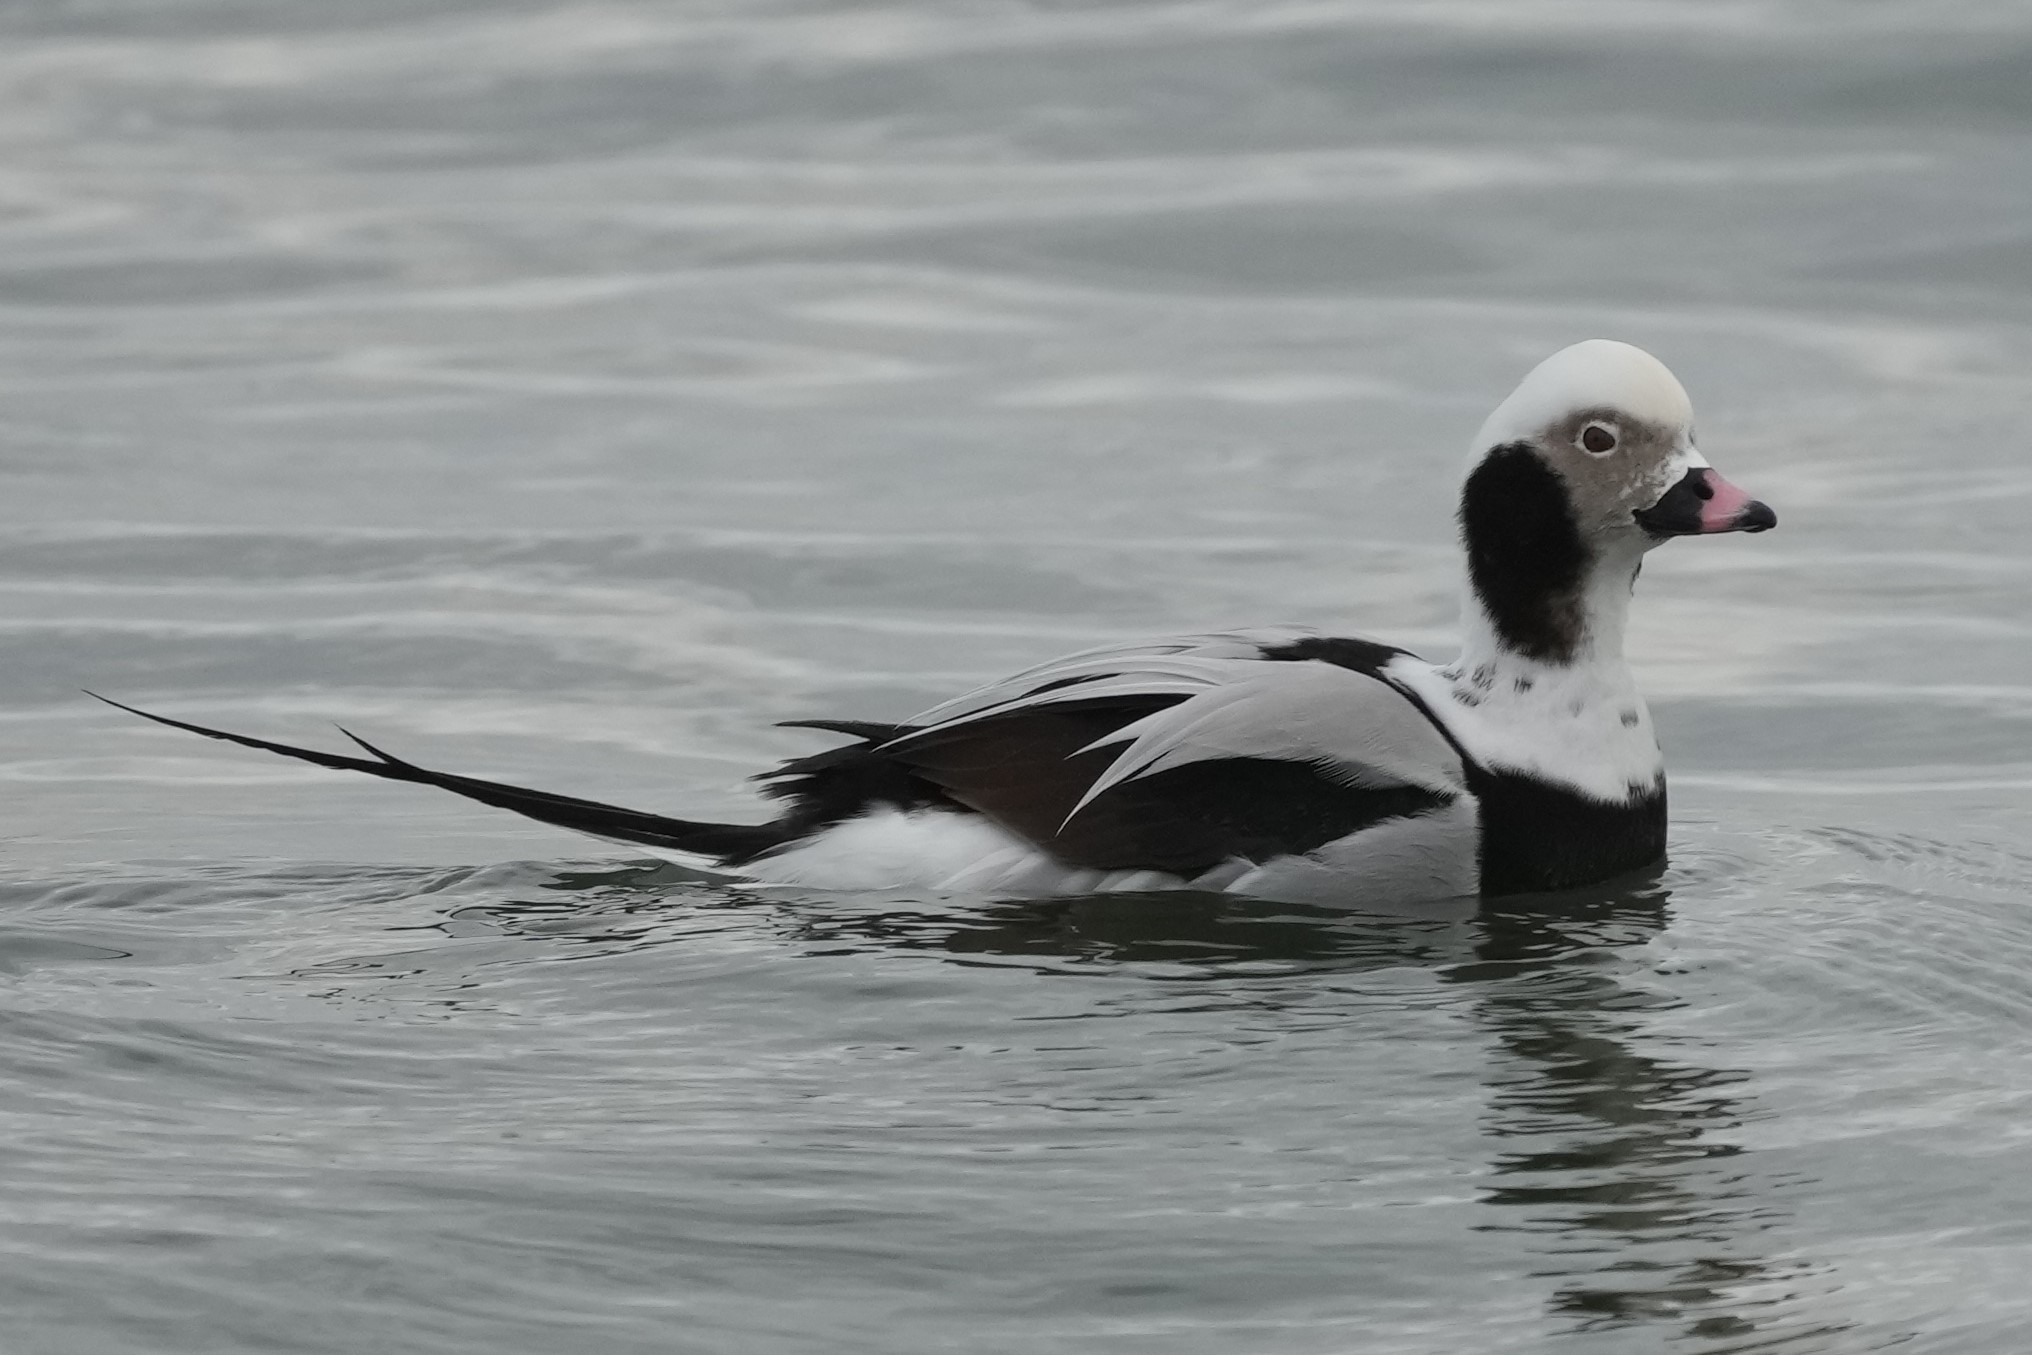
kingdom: Animalia
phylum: Chordata
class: Aves
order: Anseriformes
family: Anatidae
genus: Clangula
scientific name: Clangula hyemalis
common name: Long-tailed duck
